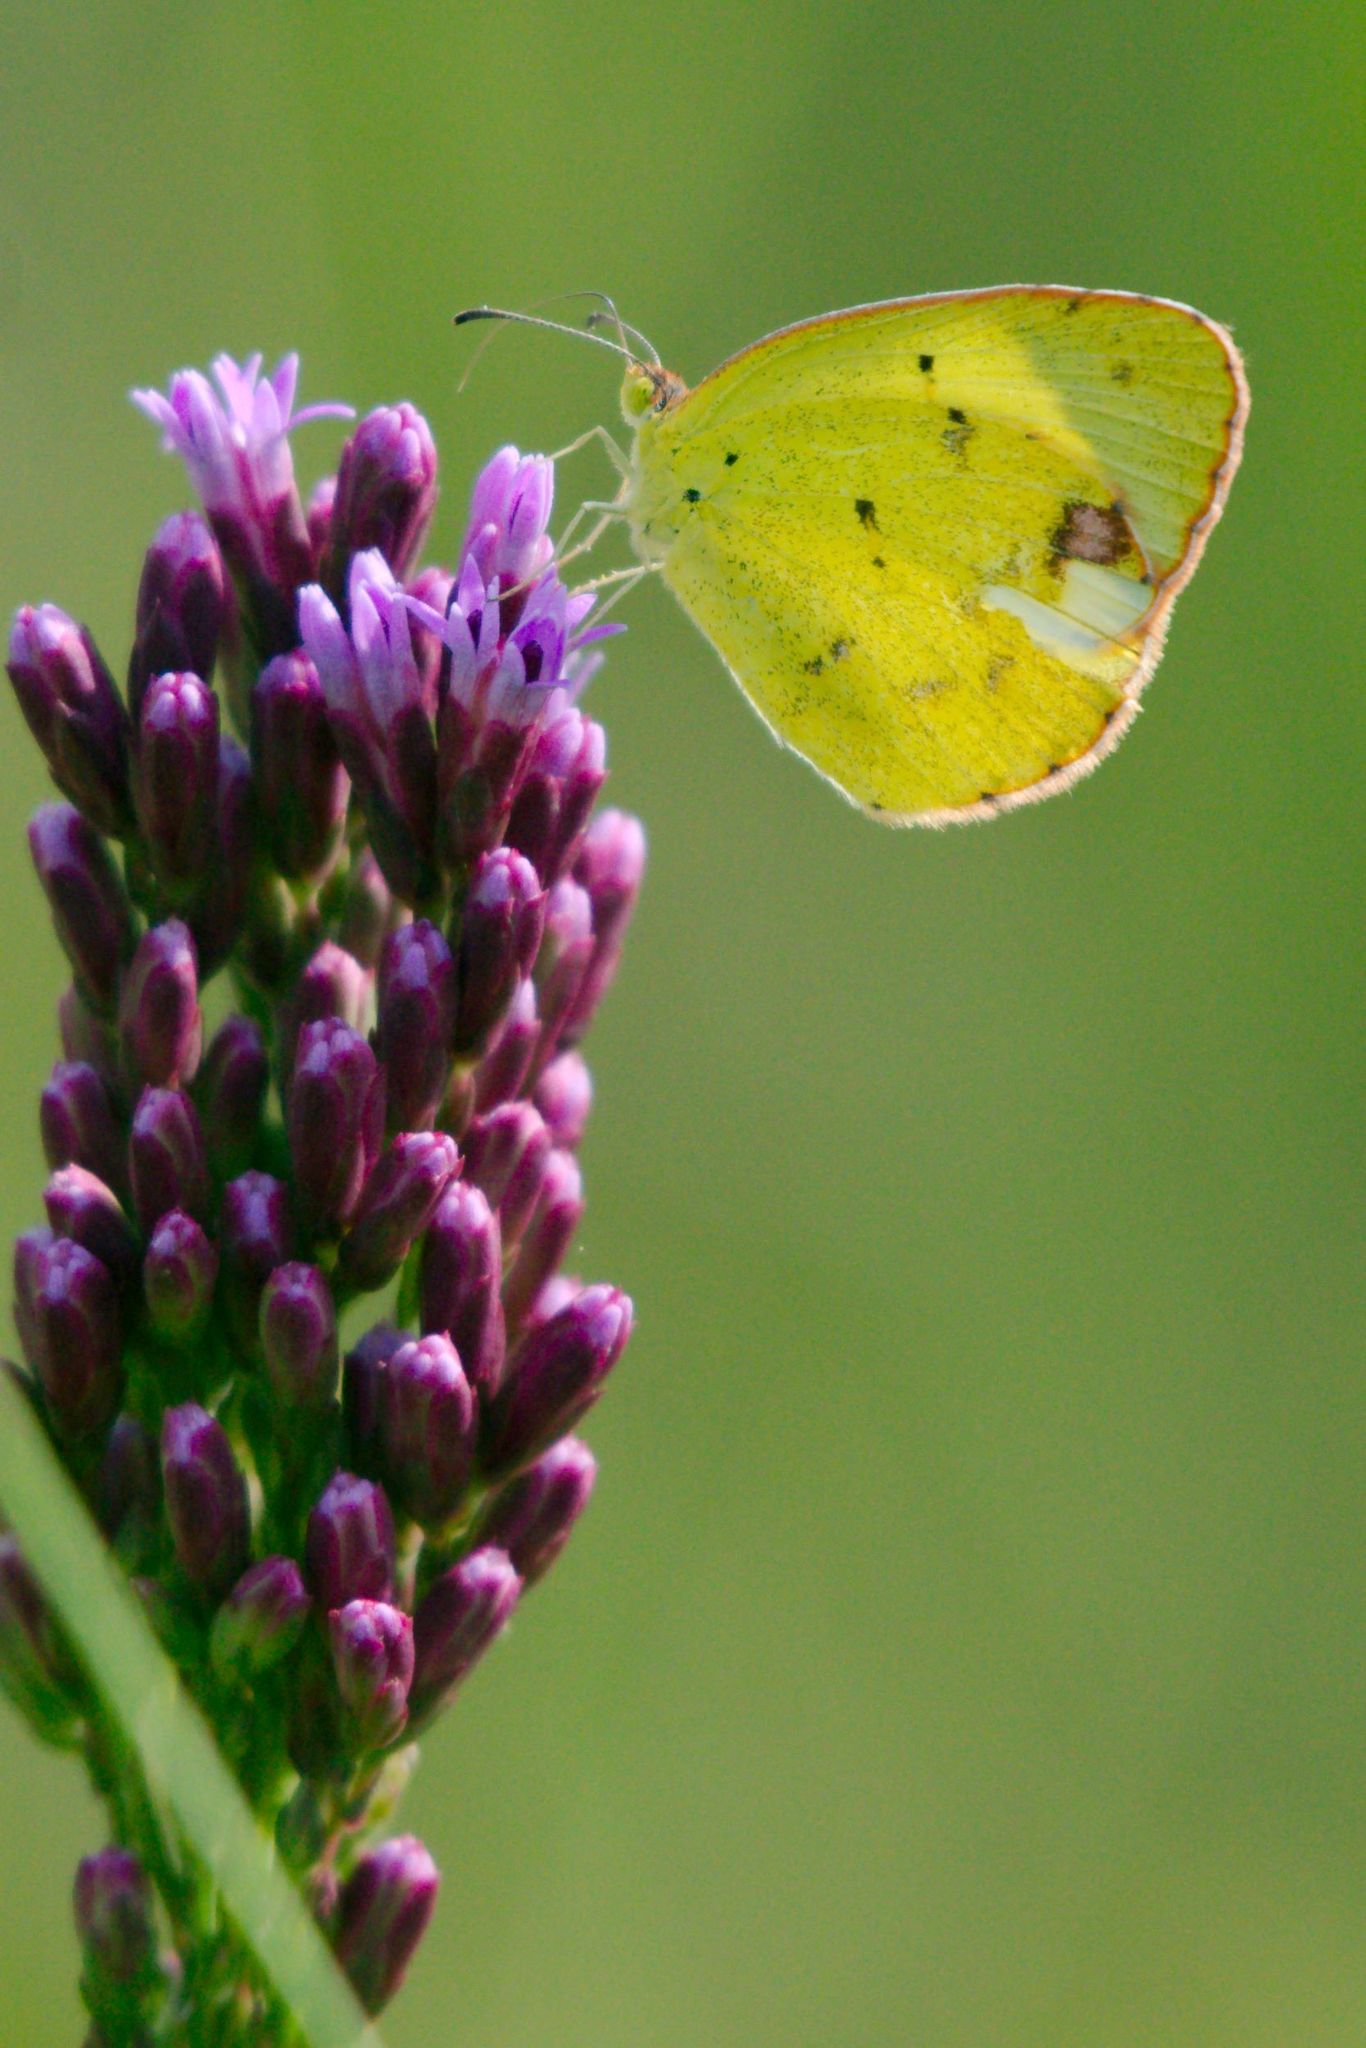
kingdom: Animalia
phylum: Arthropoda
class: Insecta
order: Lepidoptera
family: Pieridae
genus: Pyrisitia
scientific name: Pyrisitia lisa
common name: Little yellow
